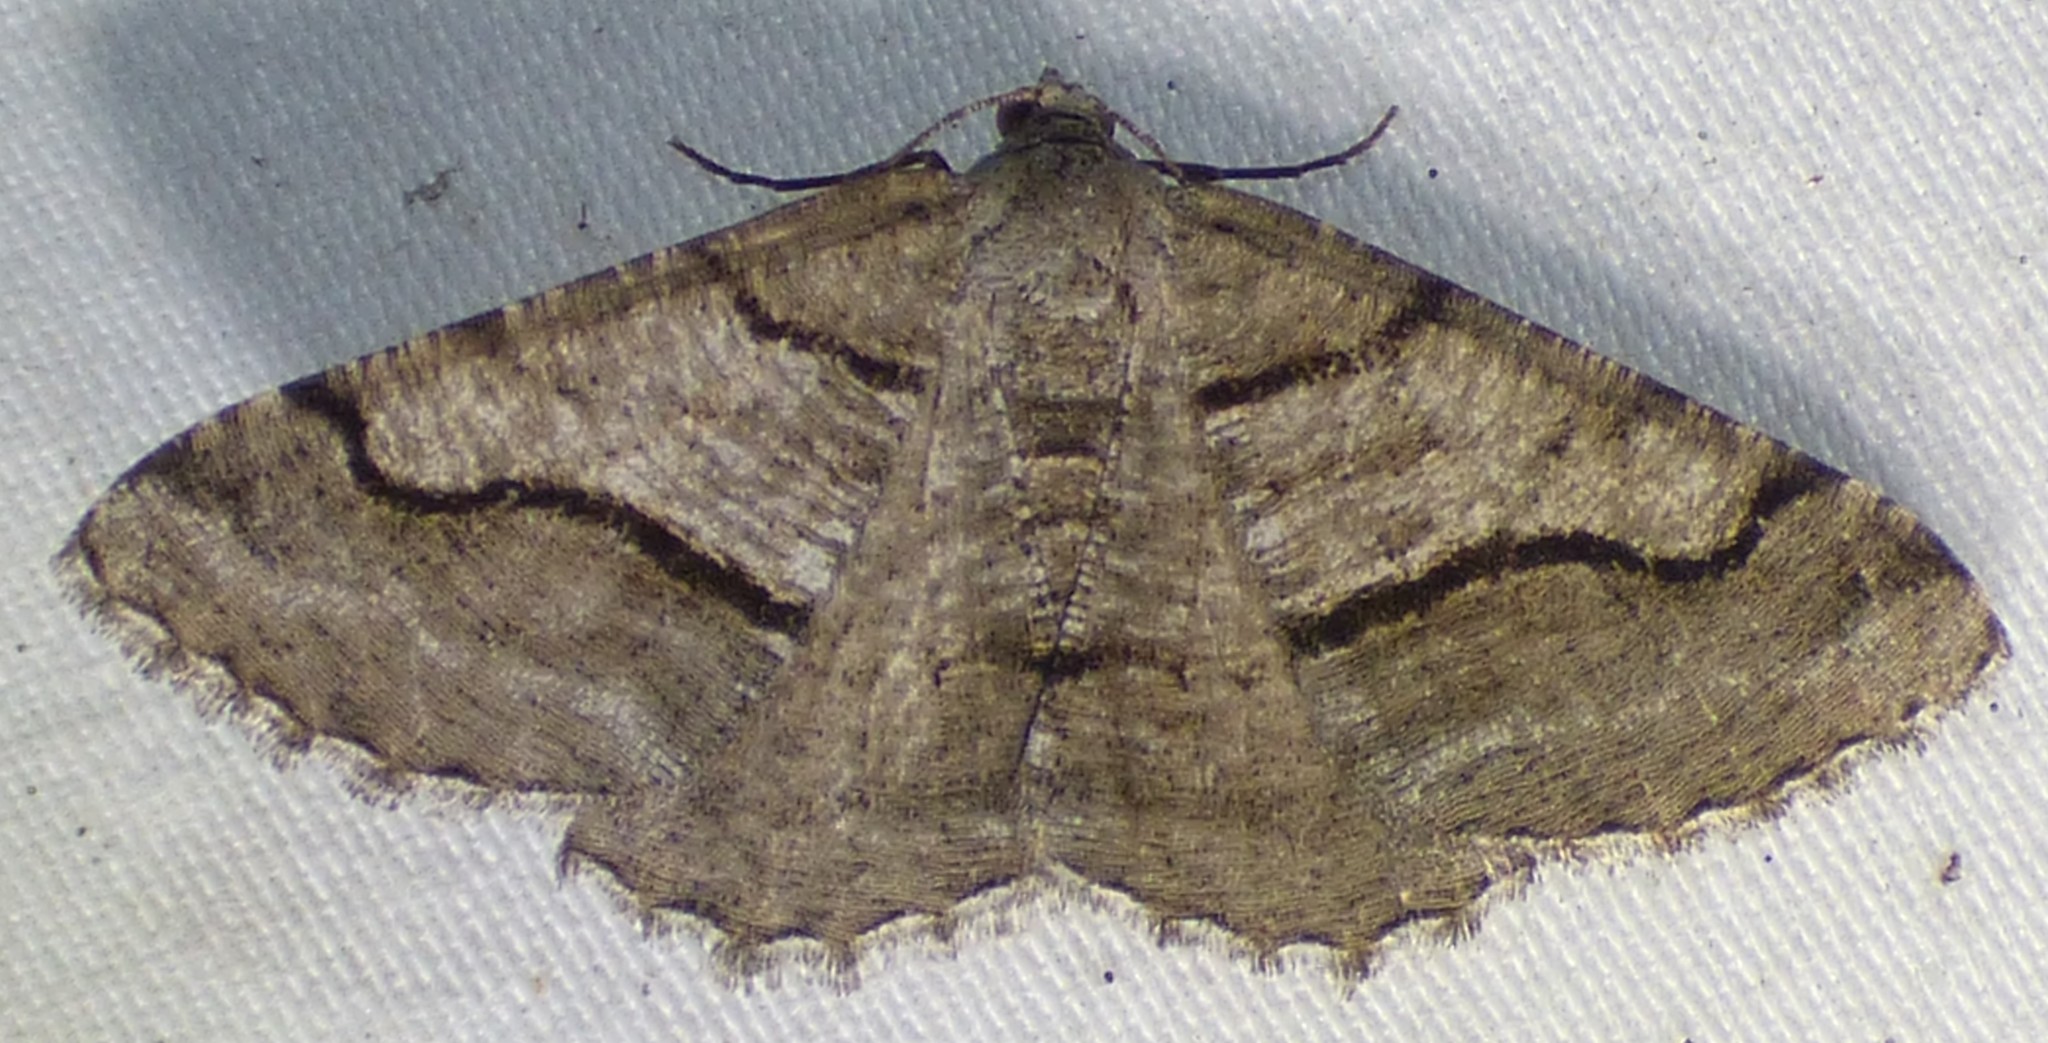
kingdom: Animalia
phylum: Arthropoda
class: Insecta
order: Lepidoptera
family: Geometridae
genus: Digrammia
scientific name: Digrammia continuata
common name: Curve-lined angle
